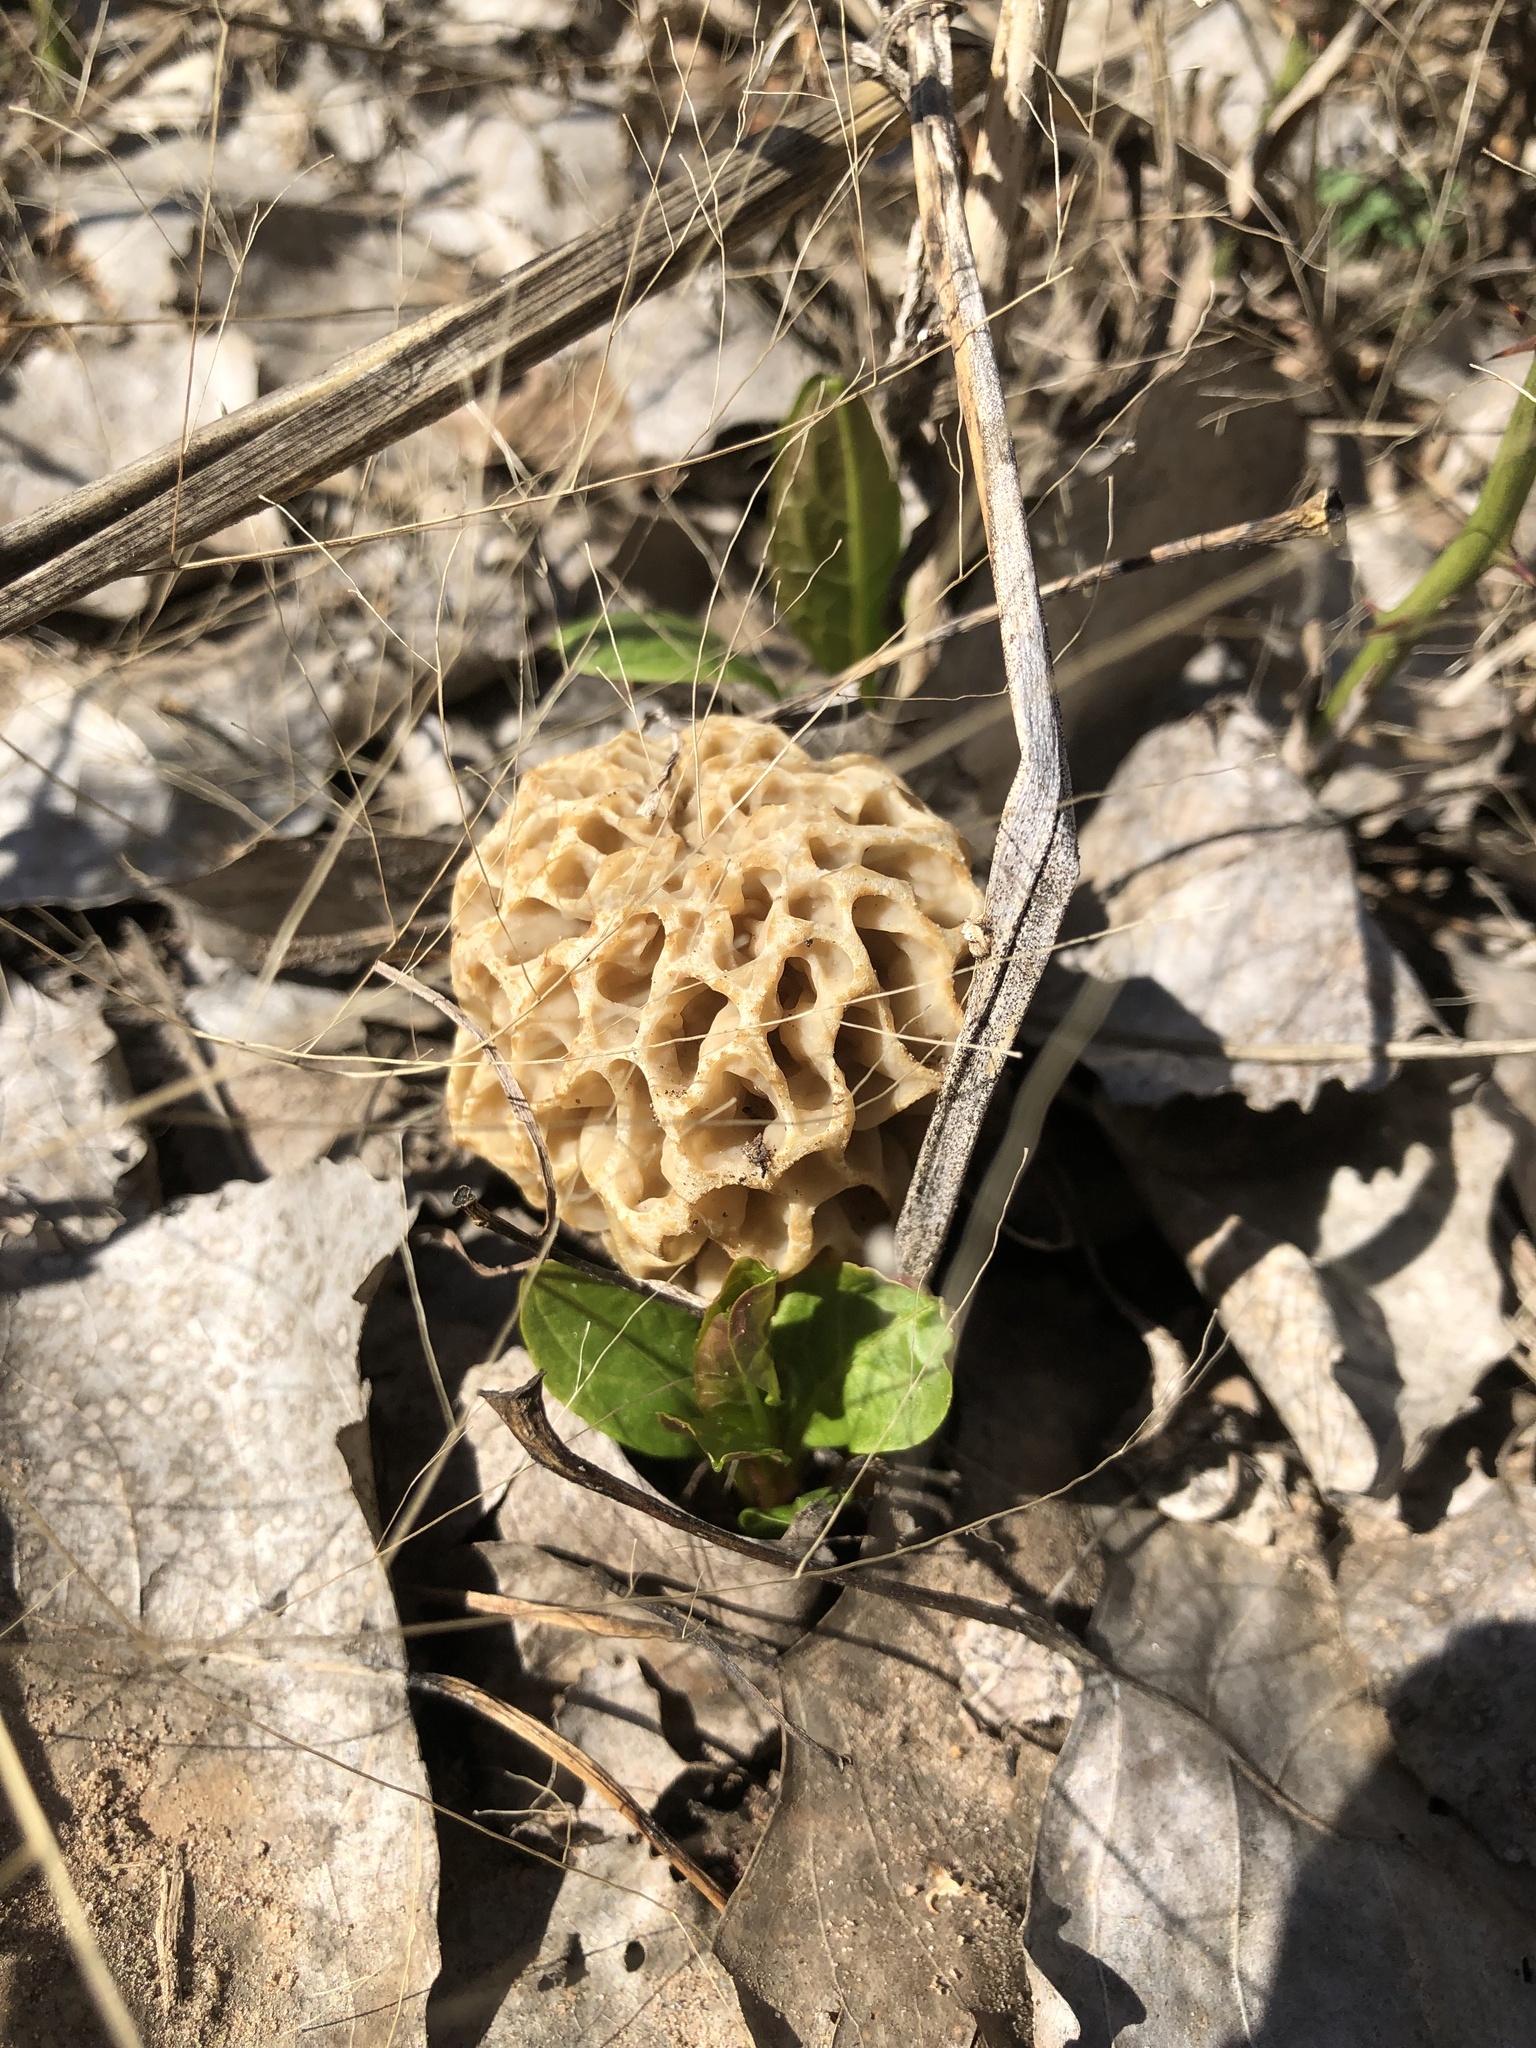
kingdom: Fungi
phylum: Ascomycota
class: Pezizomycetes
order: Pezizales
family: Morchellaceae
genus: Morchella
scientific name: Morchella americana
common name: White morel
